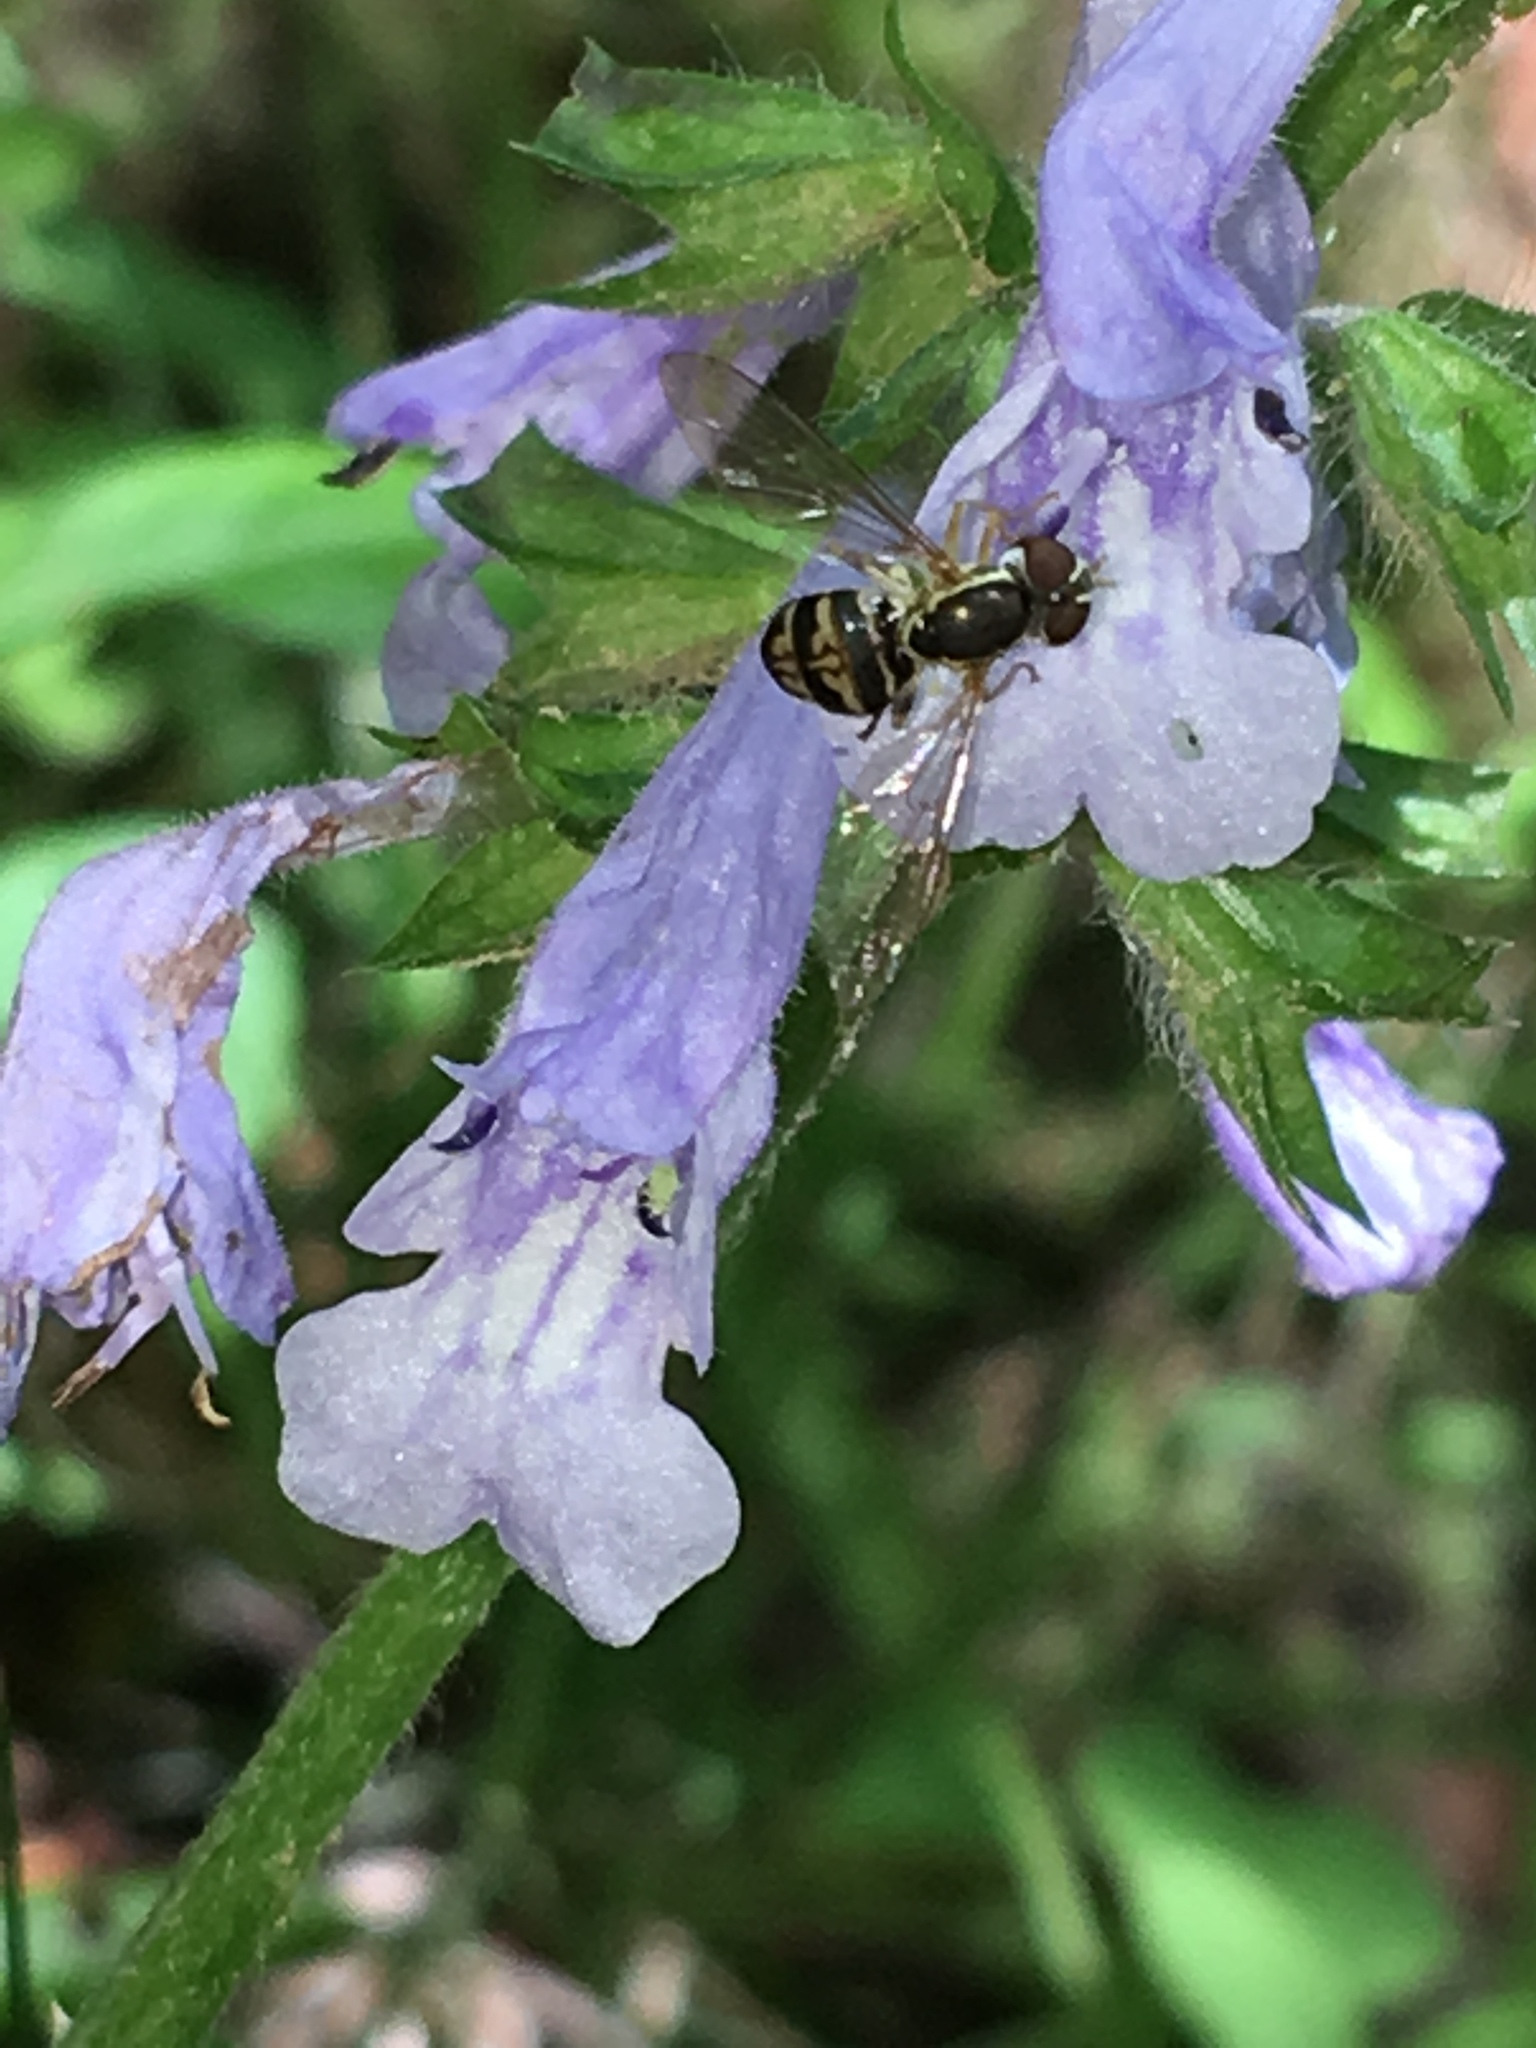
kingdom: Animalia
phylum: Arthropoda
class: Insecta
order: Diptera
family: Syrphidae
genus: Toxomerus
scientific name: Toxomerus geminatus
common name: Eastern calligrapher
